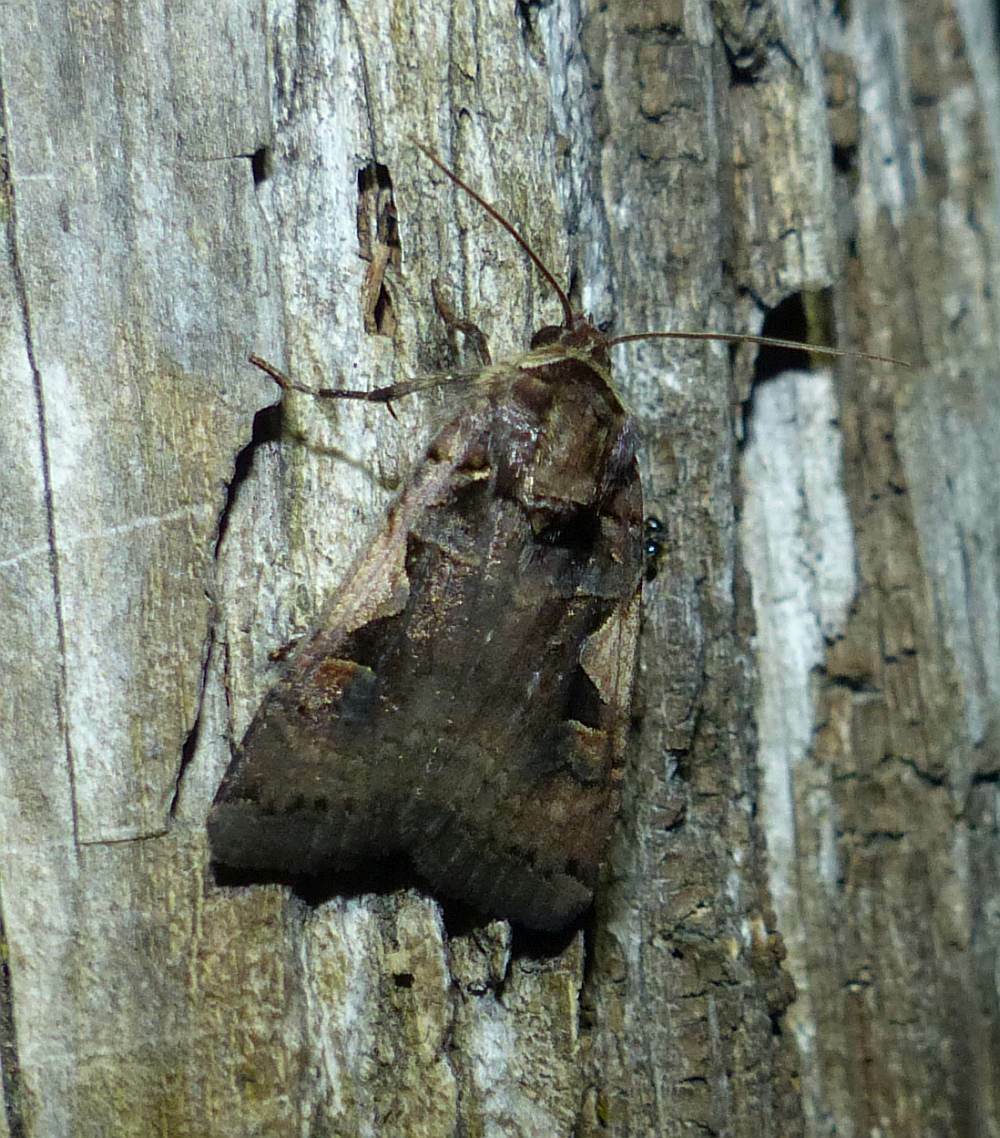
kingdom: Animalia
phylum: Arthropoda
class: Insecta
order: Lepidoptera
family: Noctuidae
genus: Xestia
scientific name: Xestia
